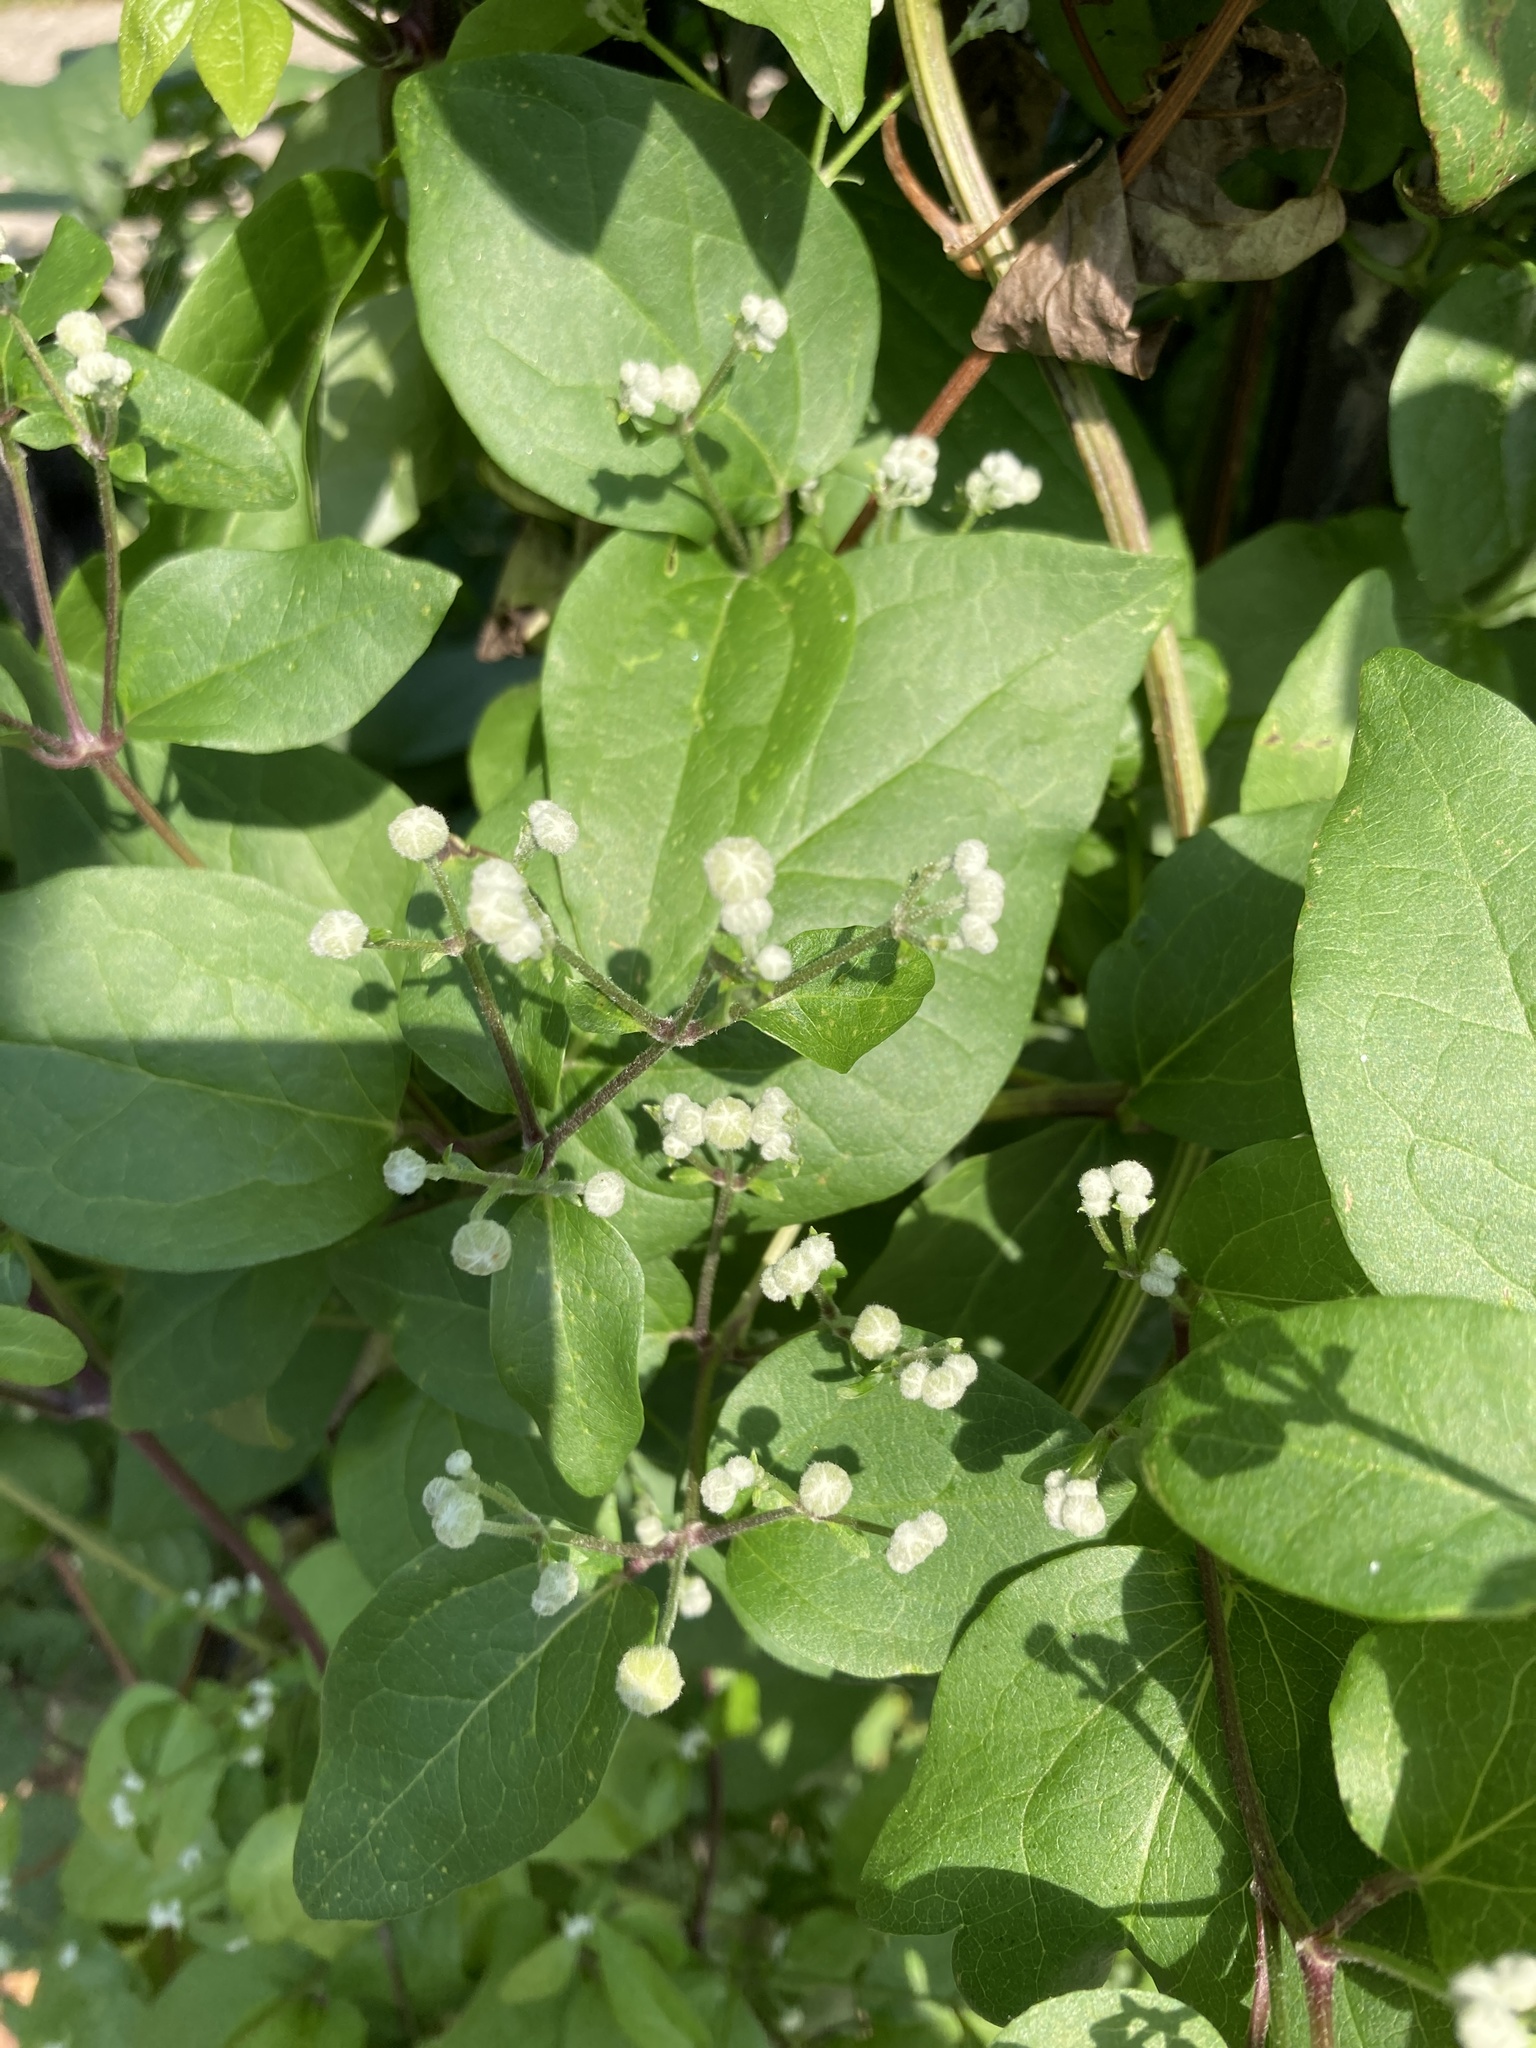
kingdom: Plantae
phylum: Tracheophyta
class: Magnoliopsida
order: Ranunculales
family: Ranunculaceae
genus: Clematis
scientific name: Clematis vitalba
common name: Evergreen clematis
